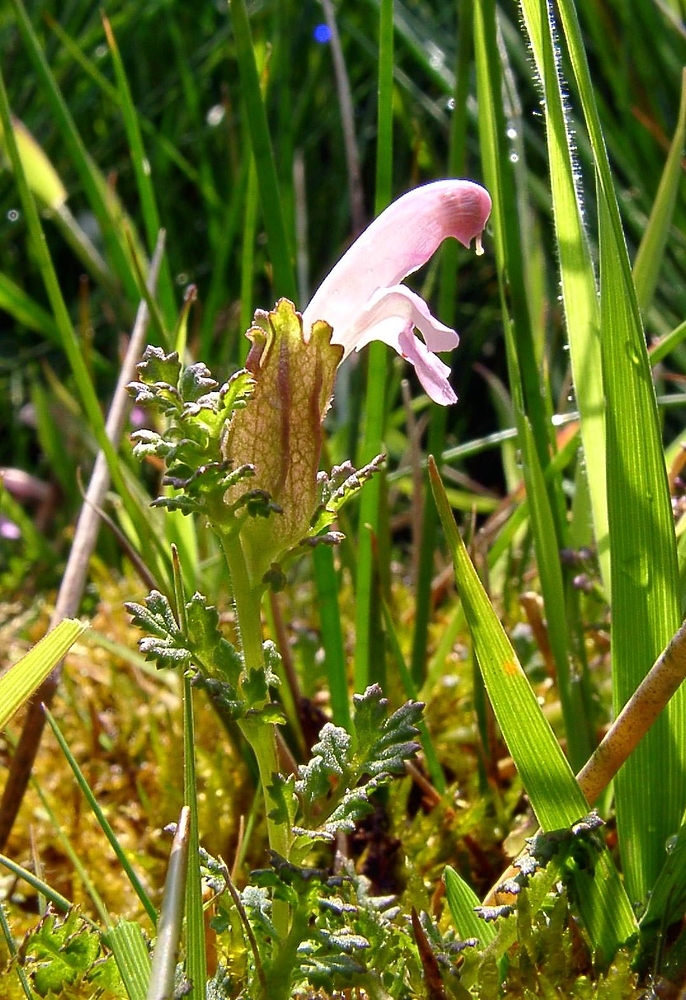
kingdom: Plantae
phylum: Tracheophyta
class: Magnoliopsida
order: Lamiales
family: Orobanchaceae
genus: Pedicularis
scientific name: Pedicularis sylvatica
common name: Lousewort
